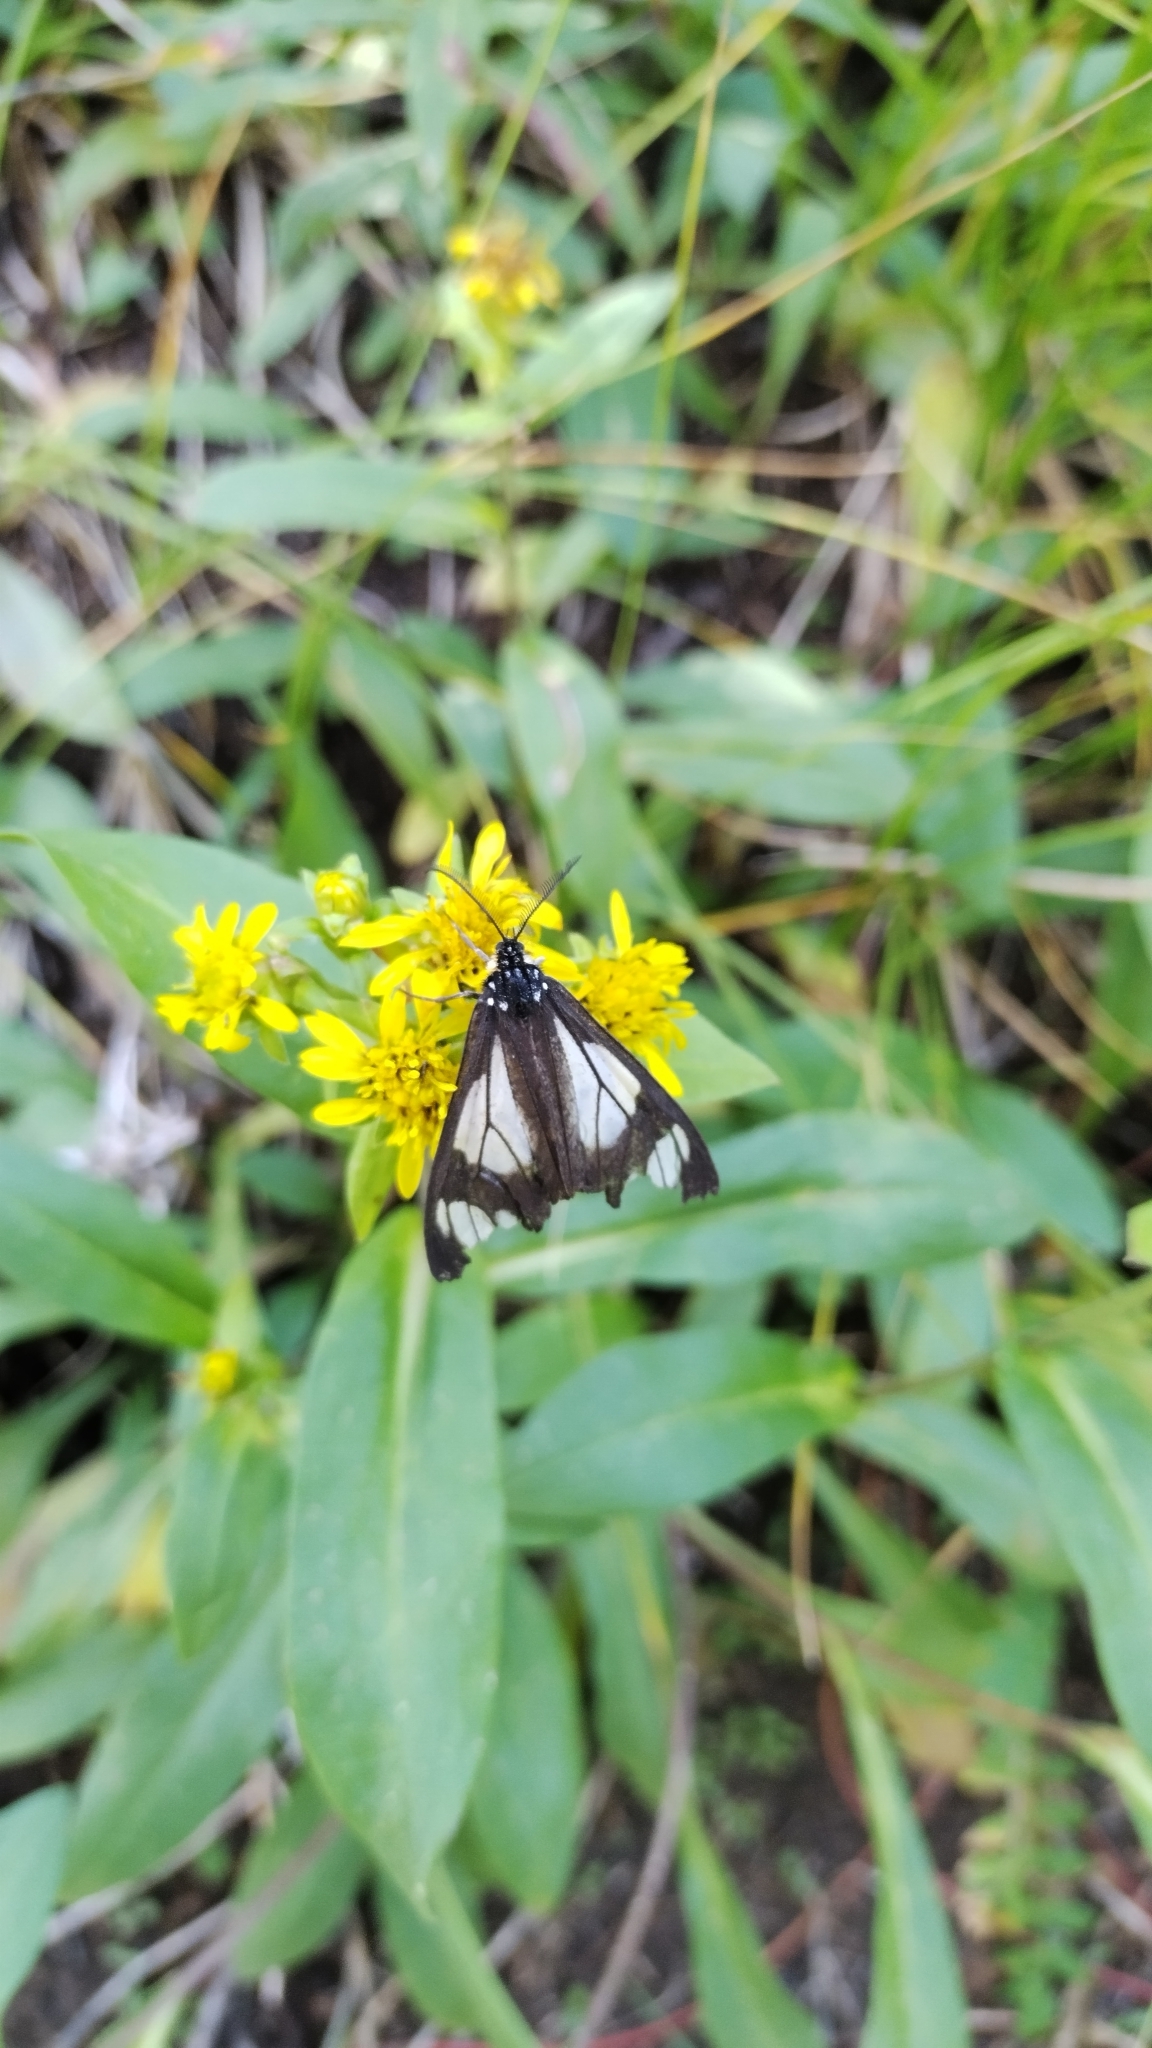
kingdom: Animalia
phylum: Arthropoda
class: Insecta
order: Lepidoptera
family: Erebidae
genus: Gnophaela
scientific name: Gnophaela vermiculata
